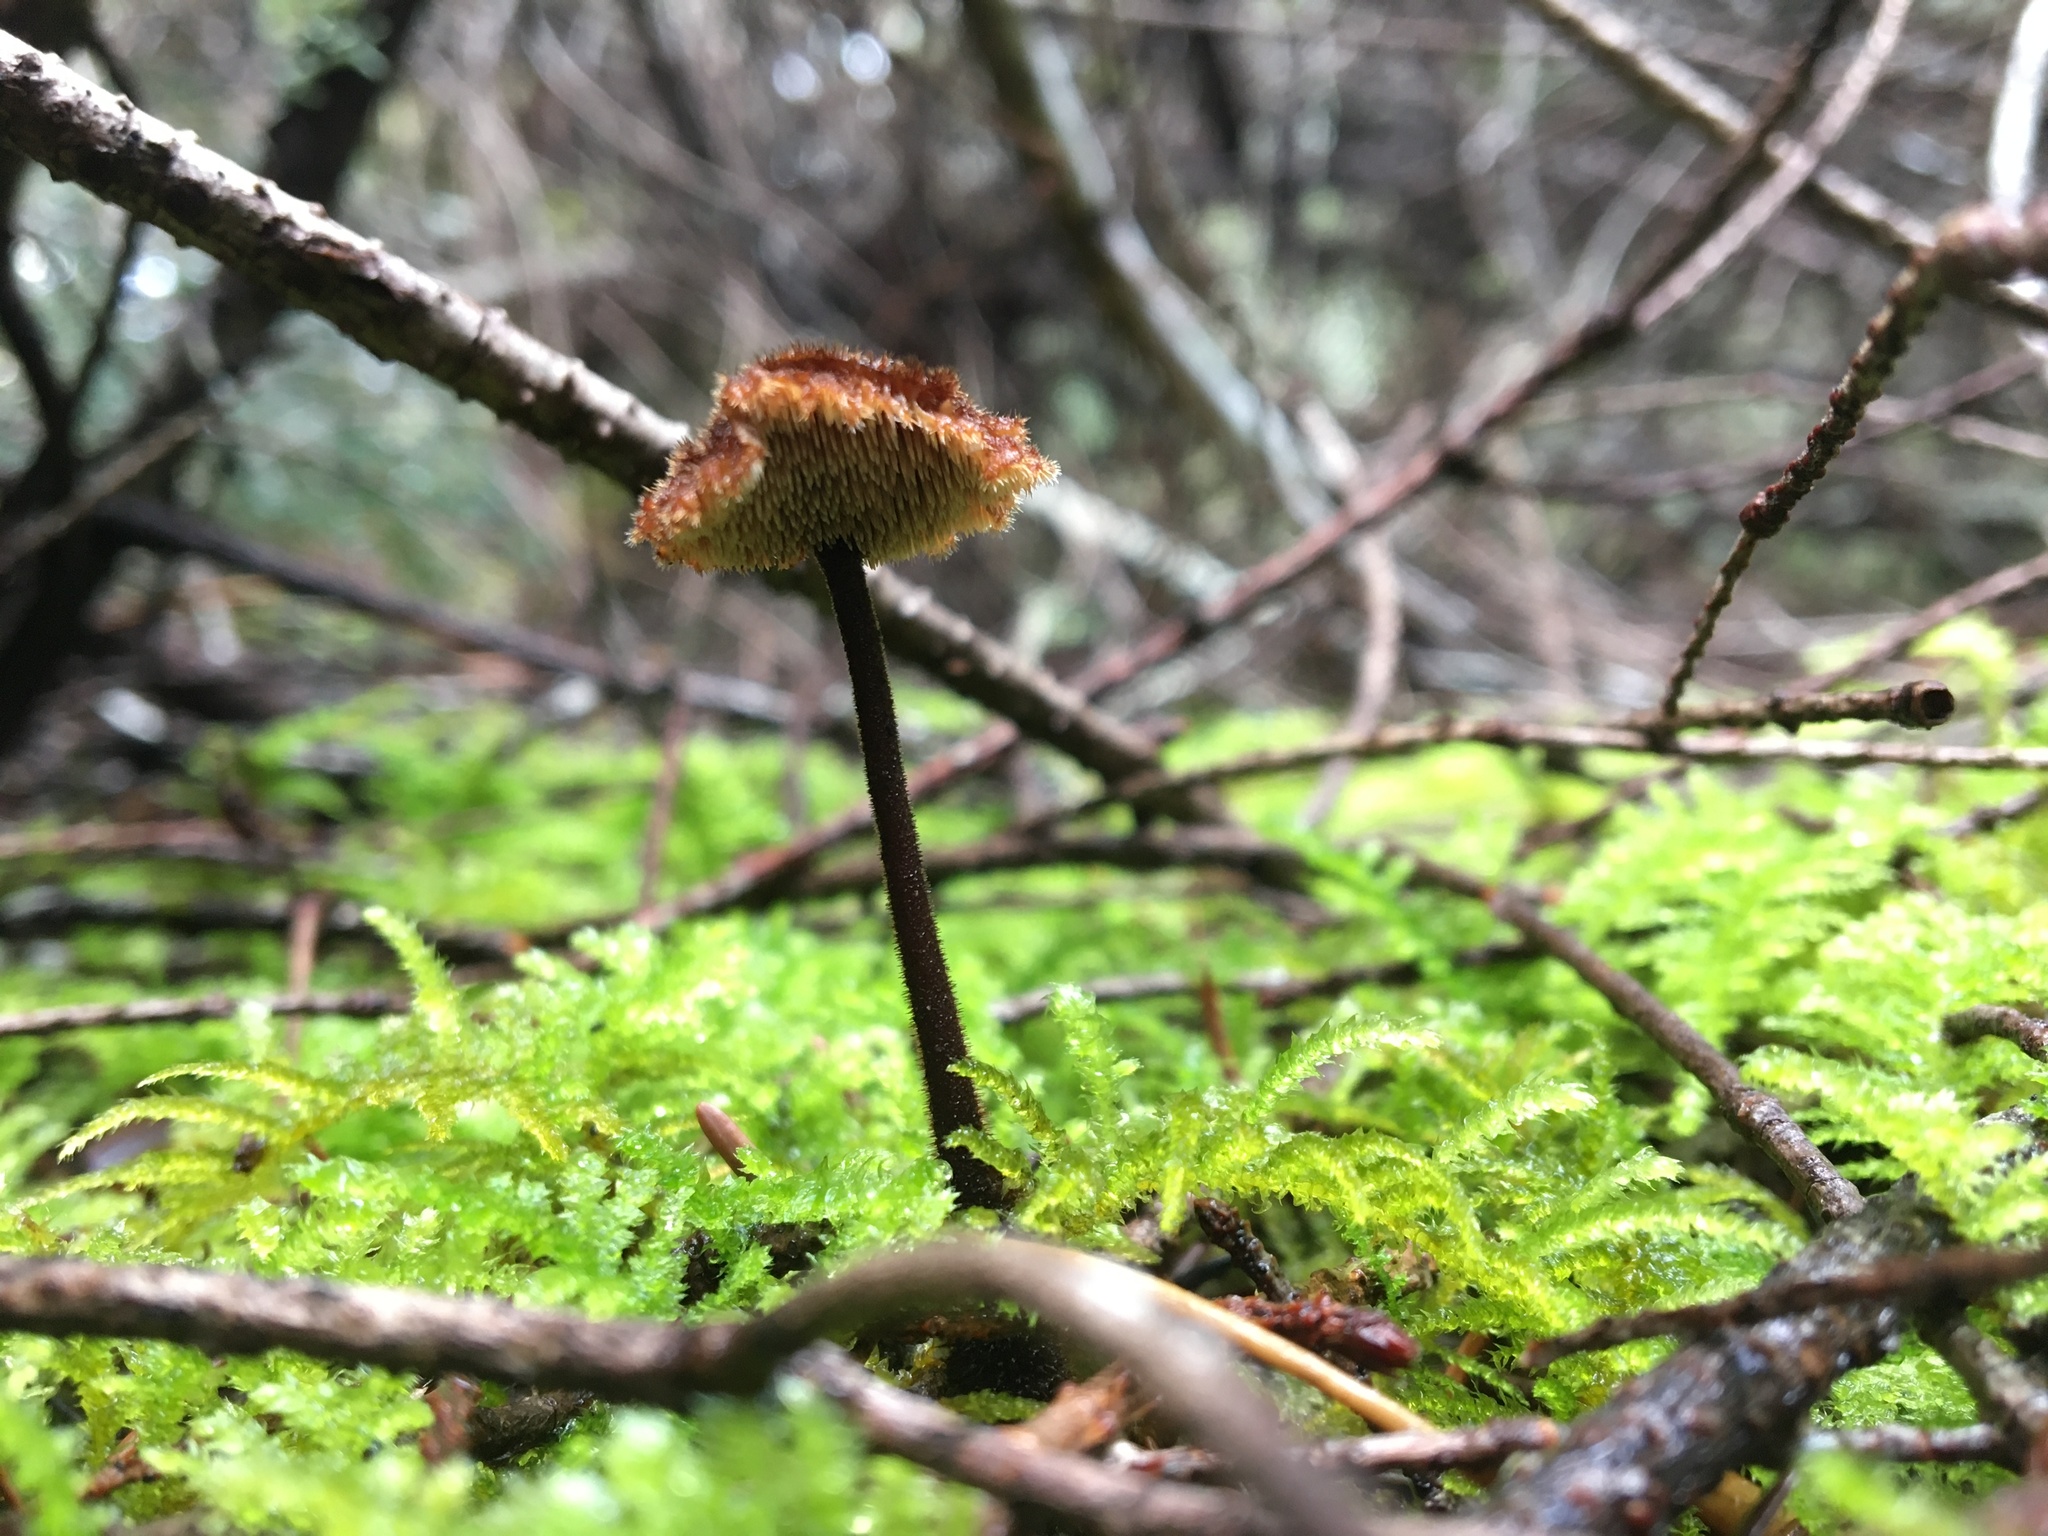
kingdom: Fungi
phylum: Basidiomycota
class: Agaricomycetes
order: Russulales
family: Auriscalpiaceae
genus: Auriscalpium
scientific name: Auriscalpium vulgare
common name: Earpick fungus
